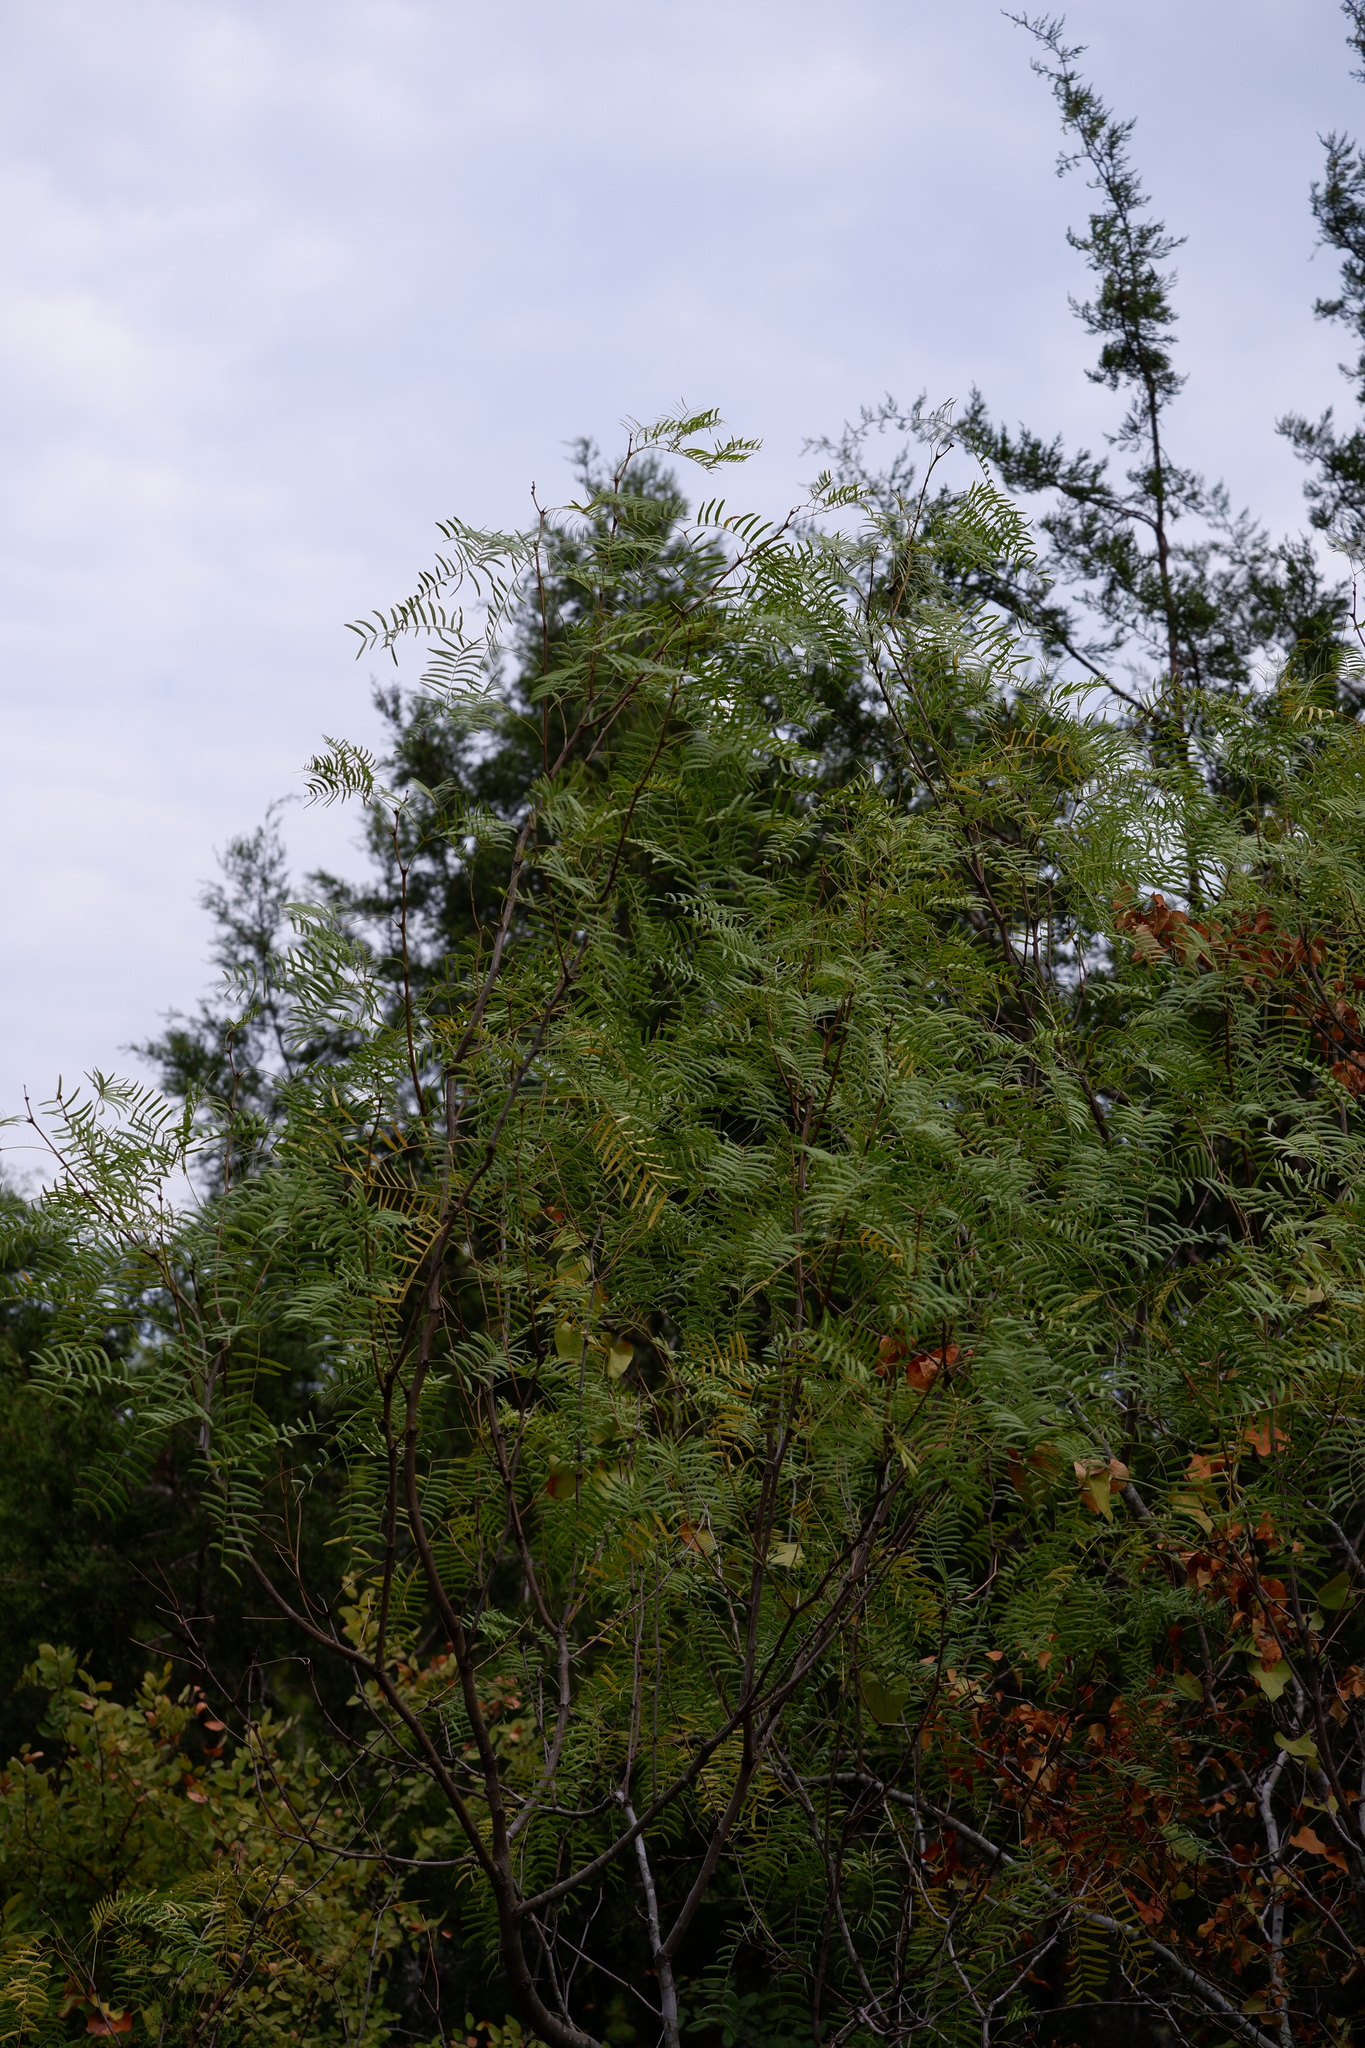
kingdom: Plantae
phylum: Tracheophyta
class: Magnoliopsida
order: Fabales
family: Fabaceae
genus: Prosopis
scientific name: Prosopis glandulosa
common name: Honey mesquite
